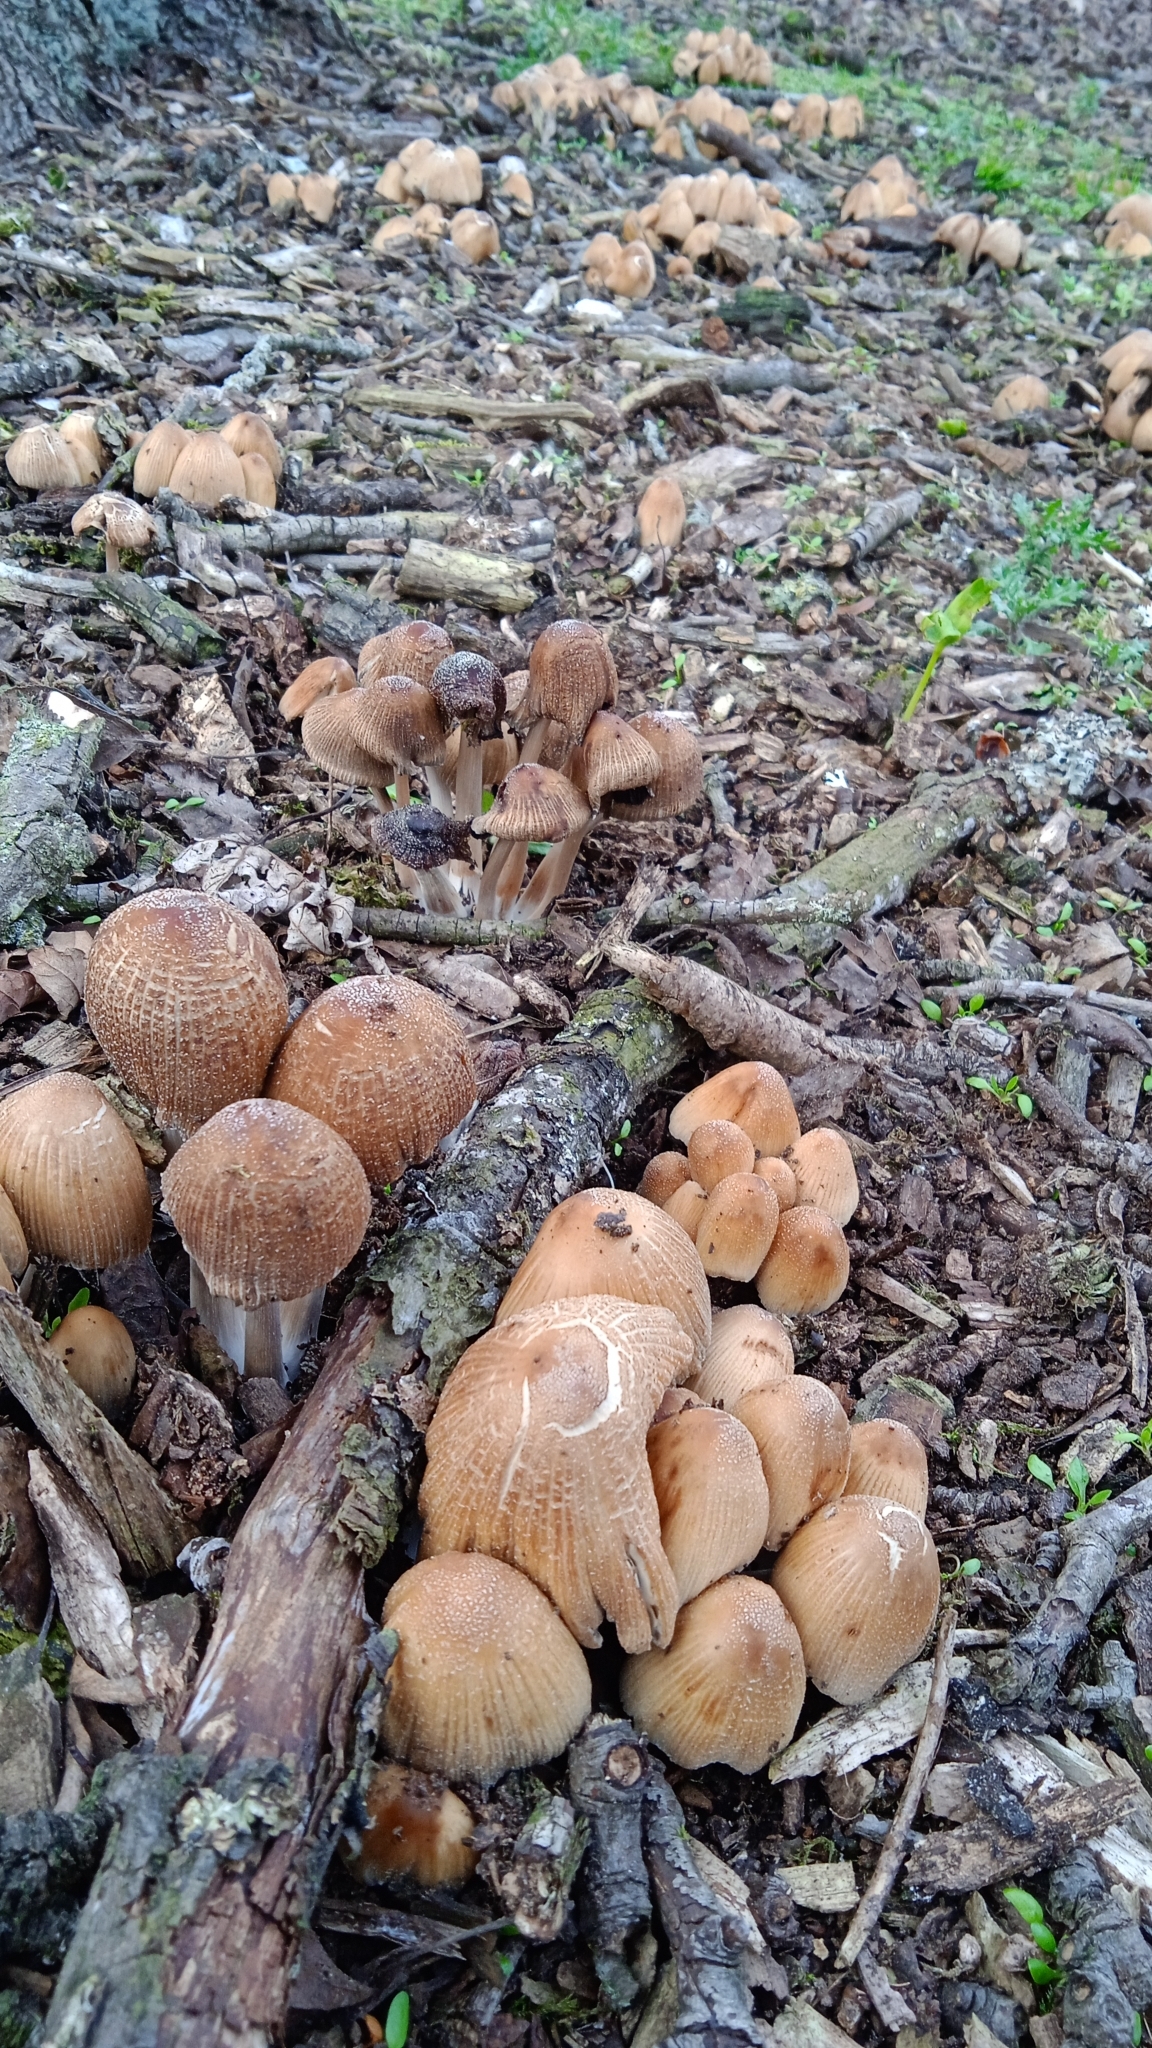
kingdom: Fungi
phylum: Basidiomycota
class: Agaricomycetes
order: Agaricales
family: Psathyrellaceae
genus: Coprinellus
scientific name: Coprinellus
